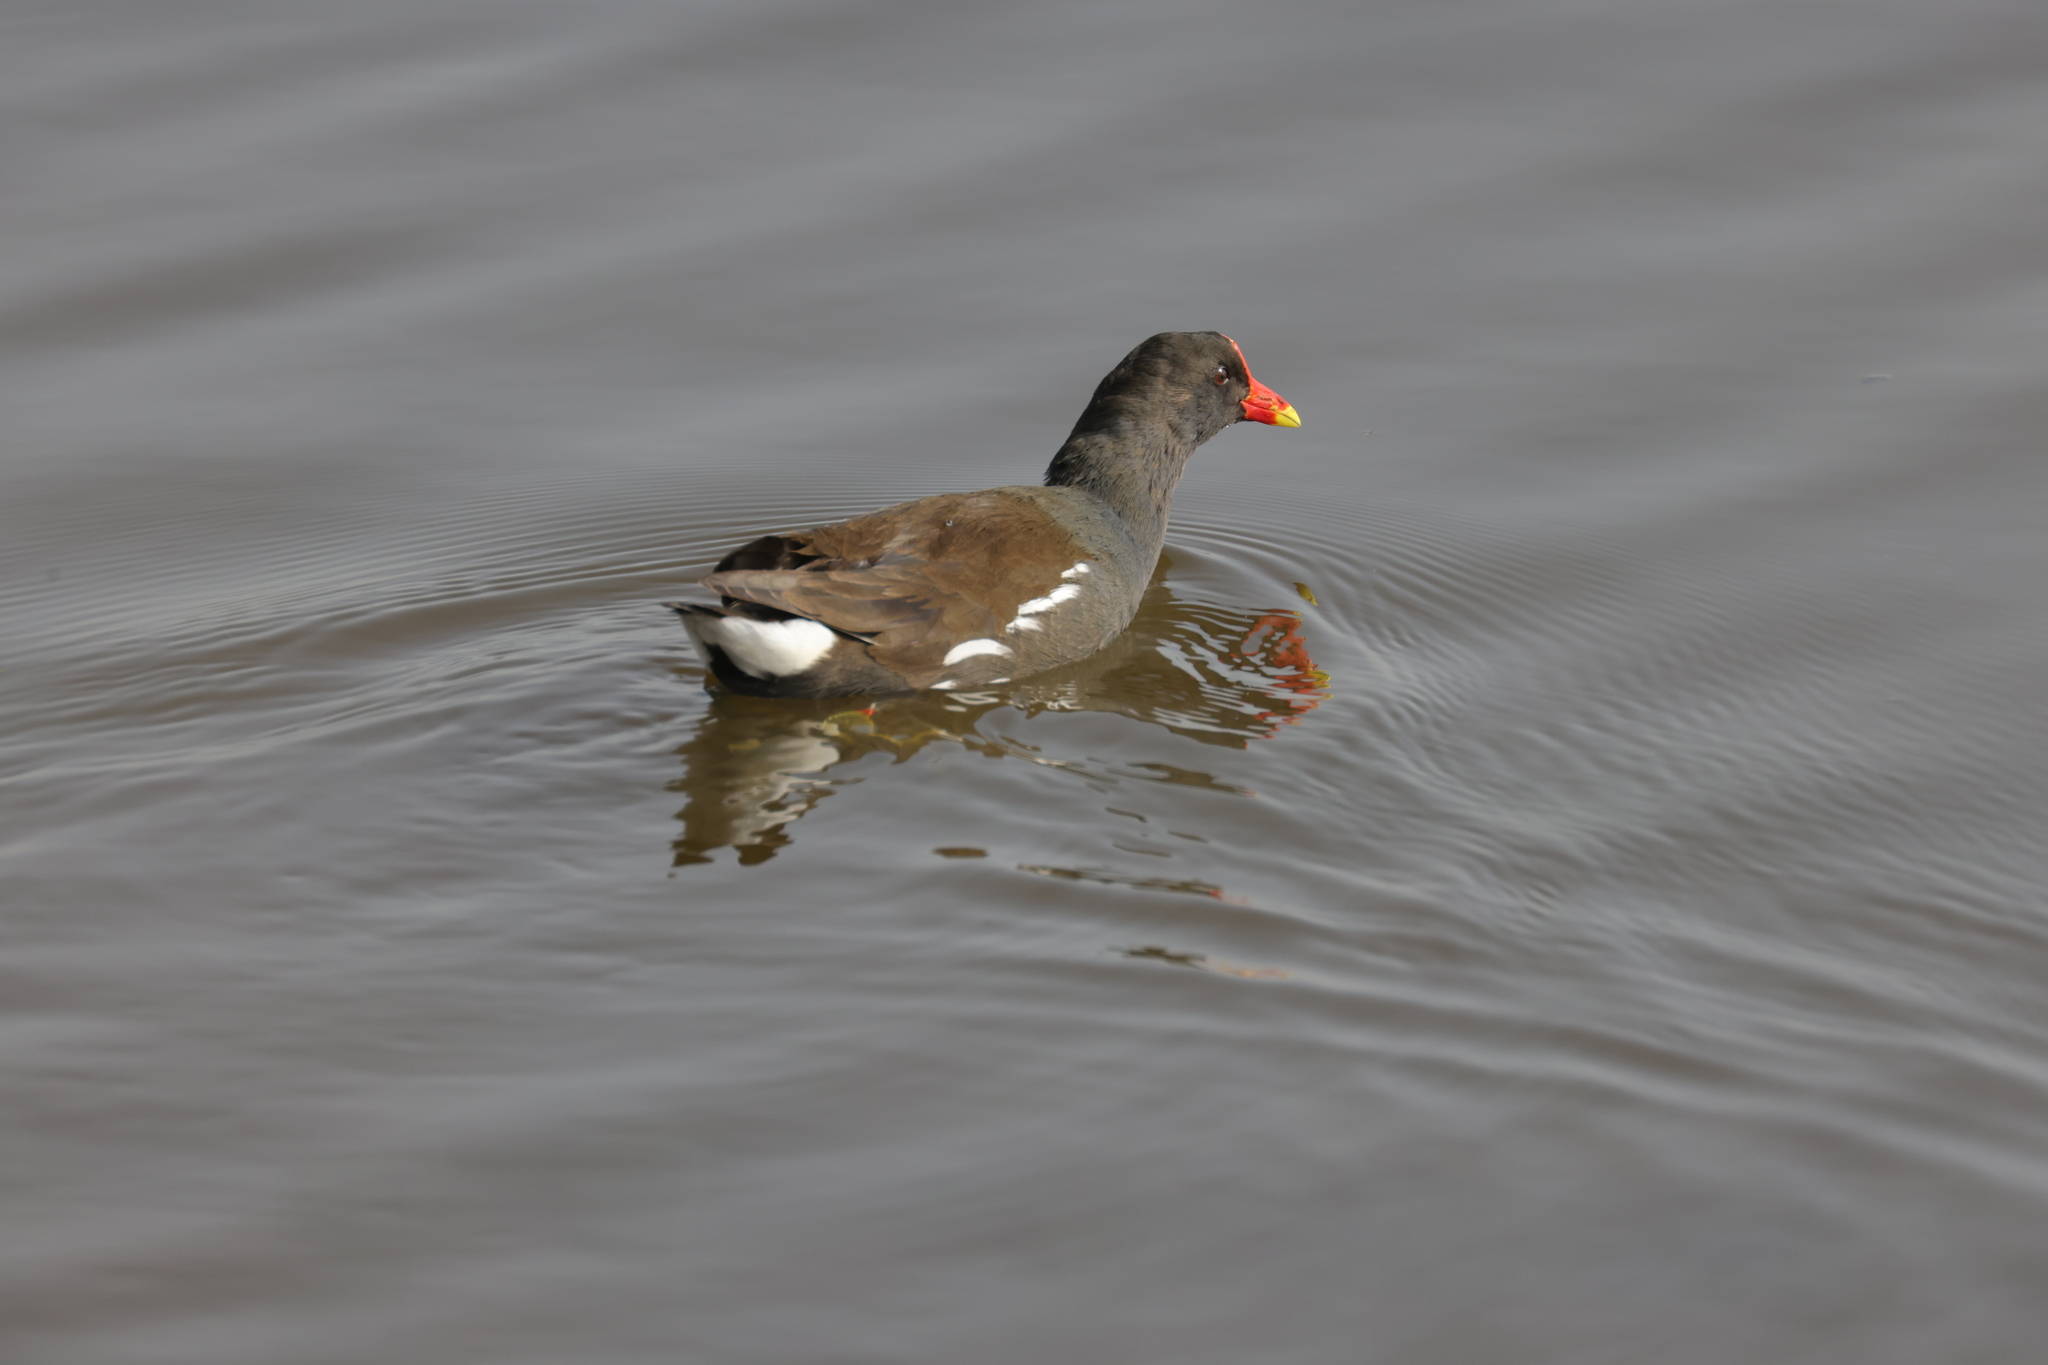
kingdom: Animalia
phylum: Chordata
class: Aves
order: Gruiformes
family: Rallidae
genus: Gallinula
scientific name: Gallinula chloropus
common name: Common moorhen
